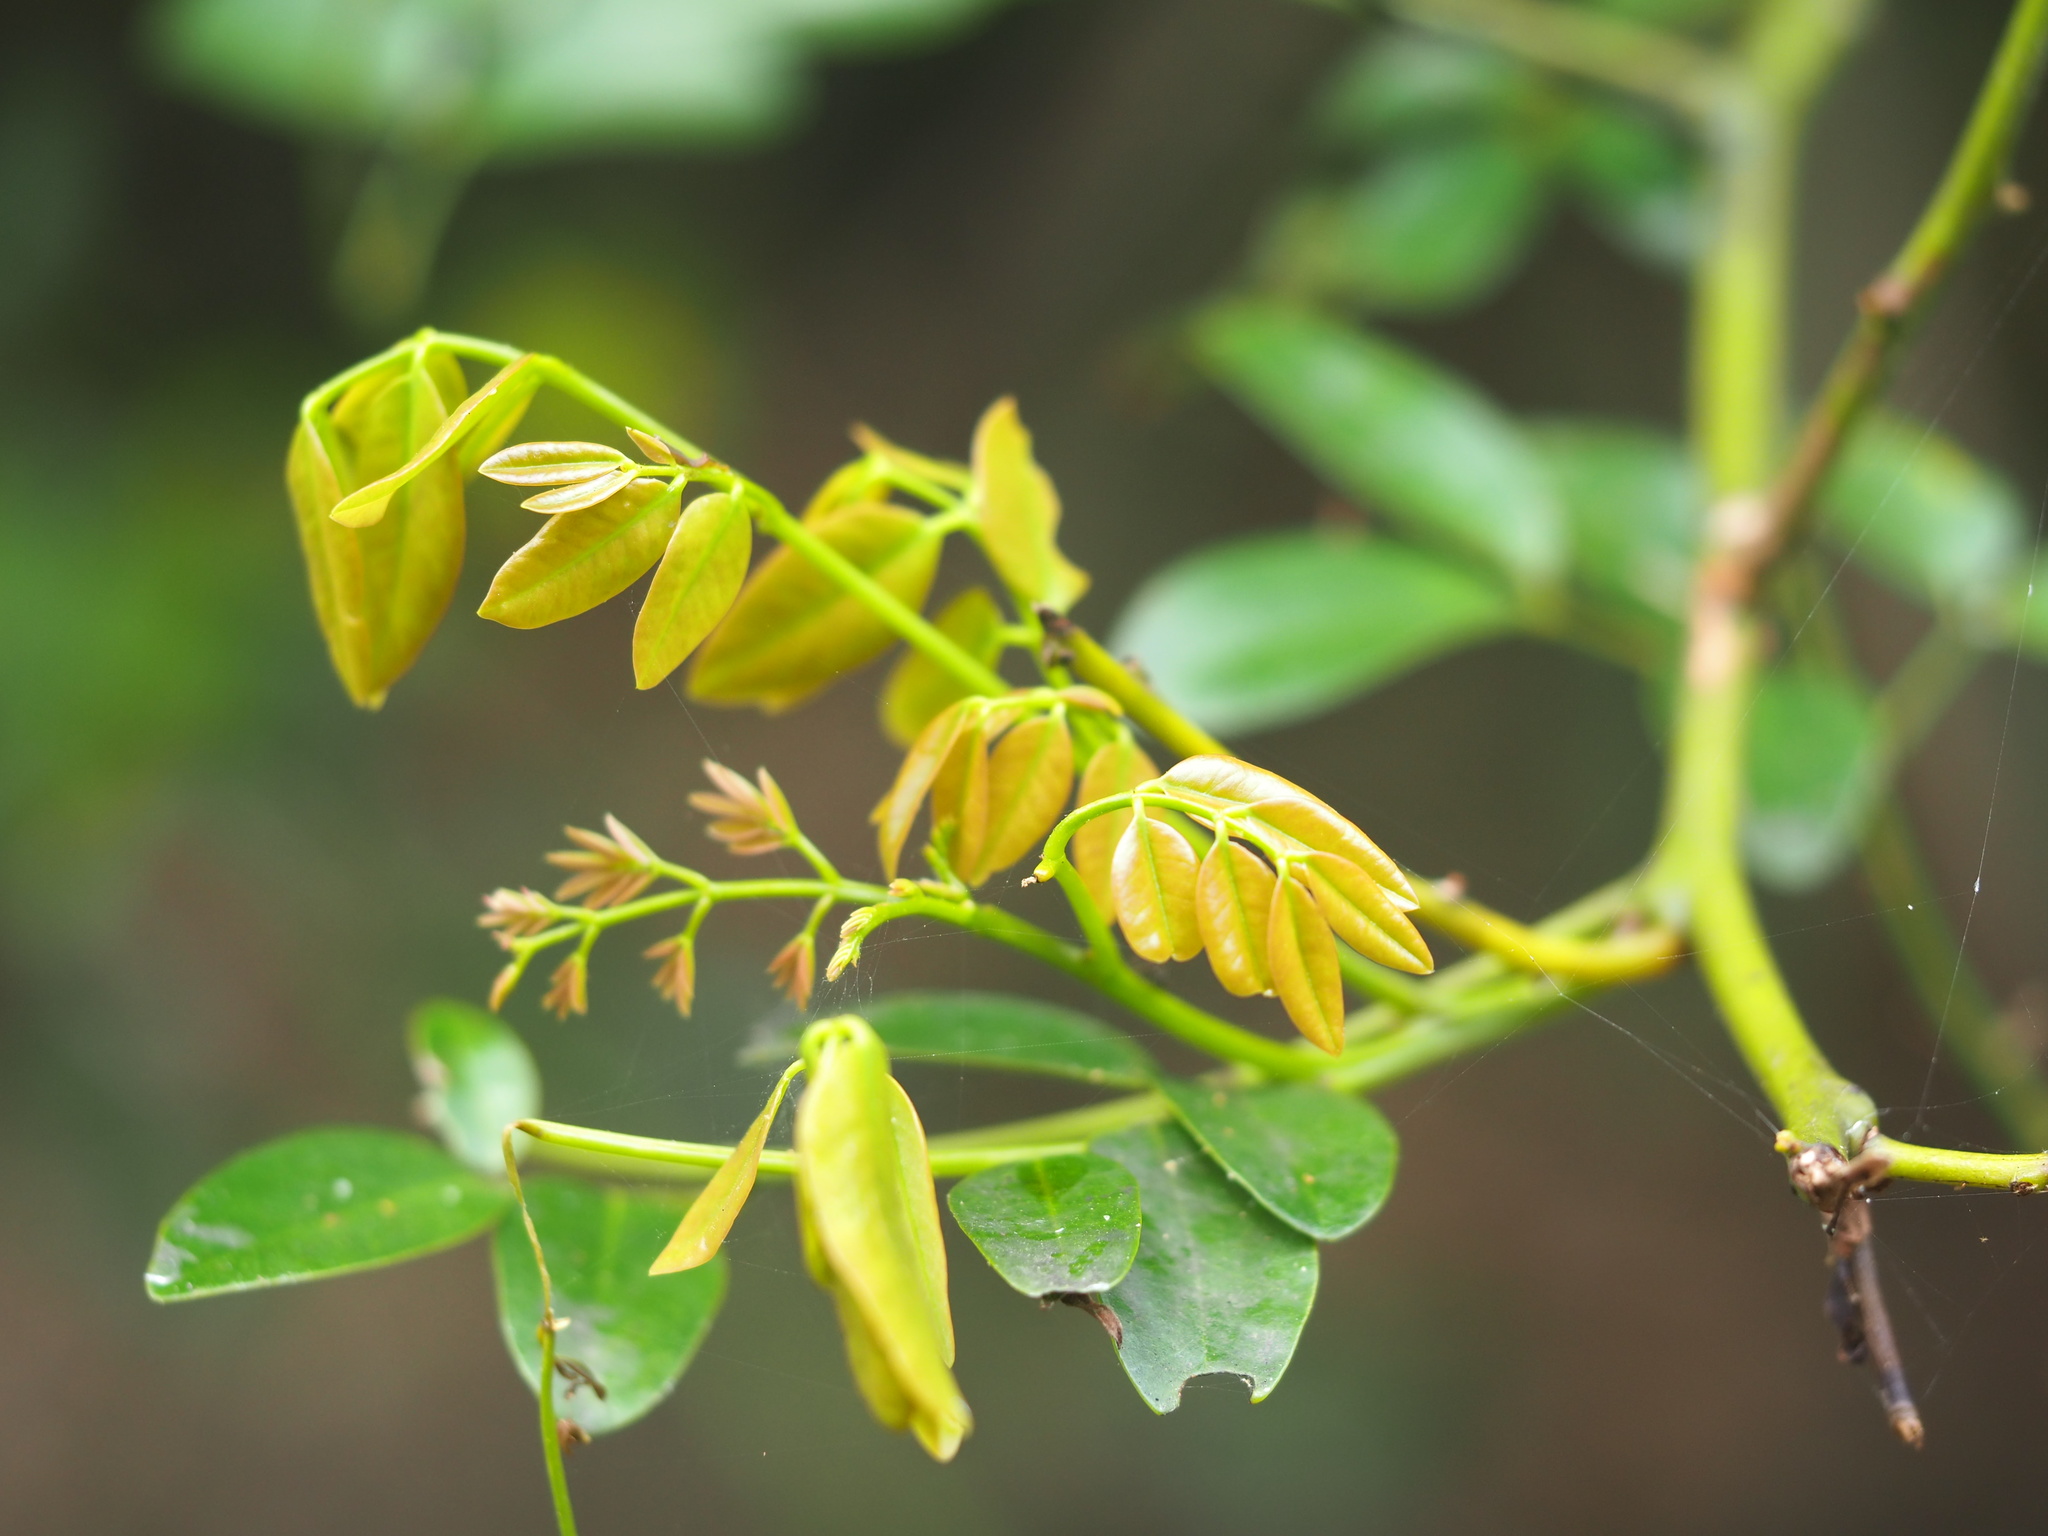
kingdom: Plantae
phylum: Tracheophyta
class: Magnoliopsida
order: Fabales
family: Fabaceae
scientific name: Fabaceae
